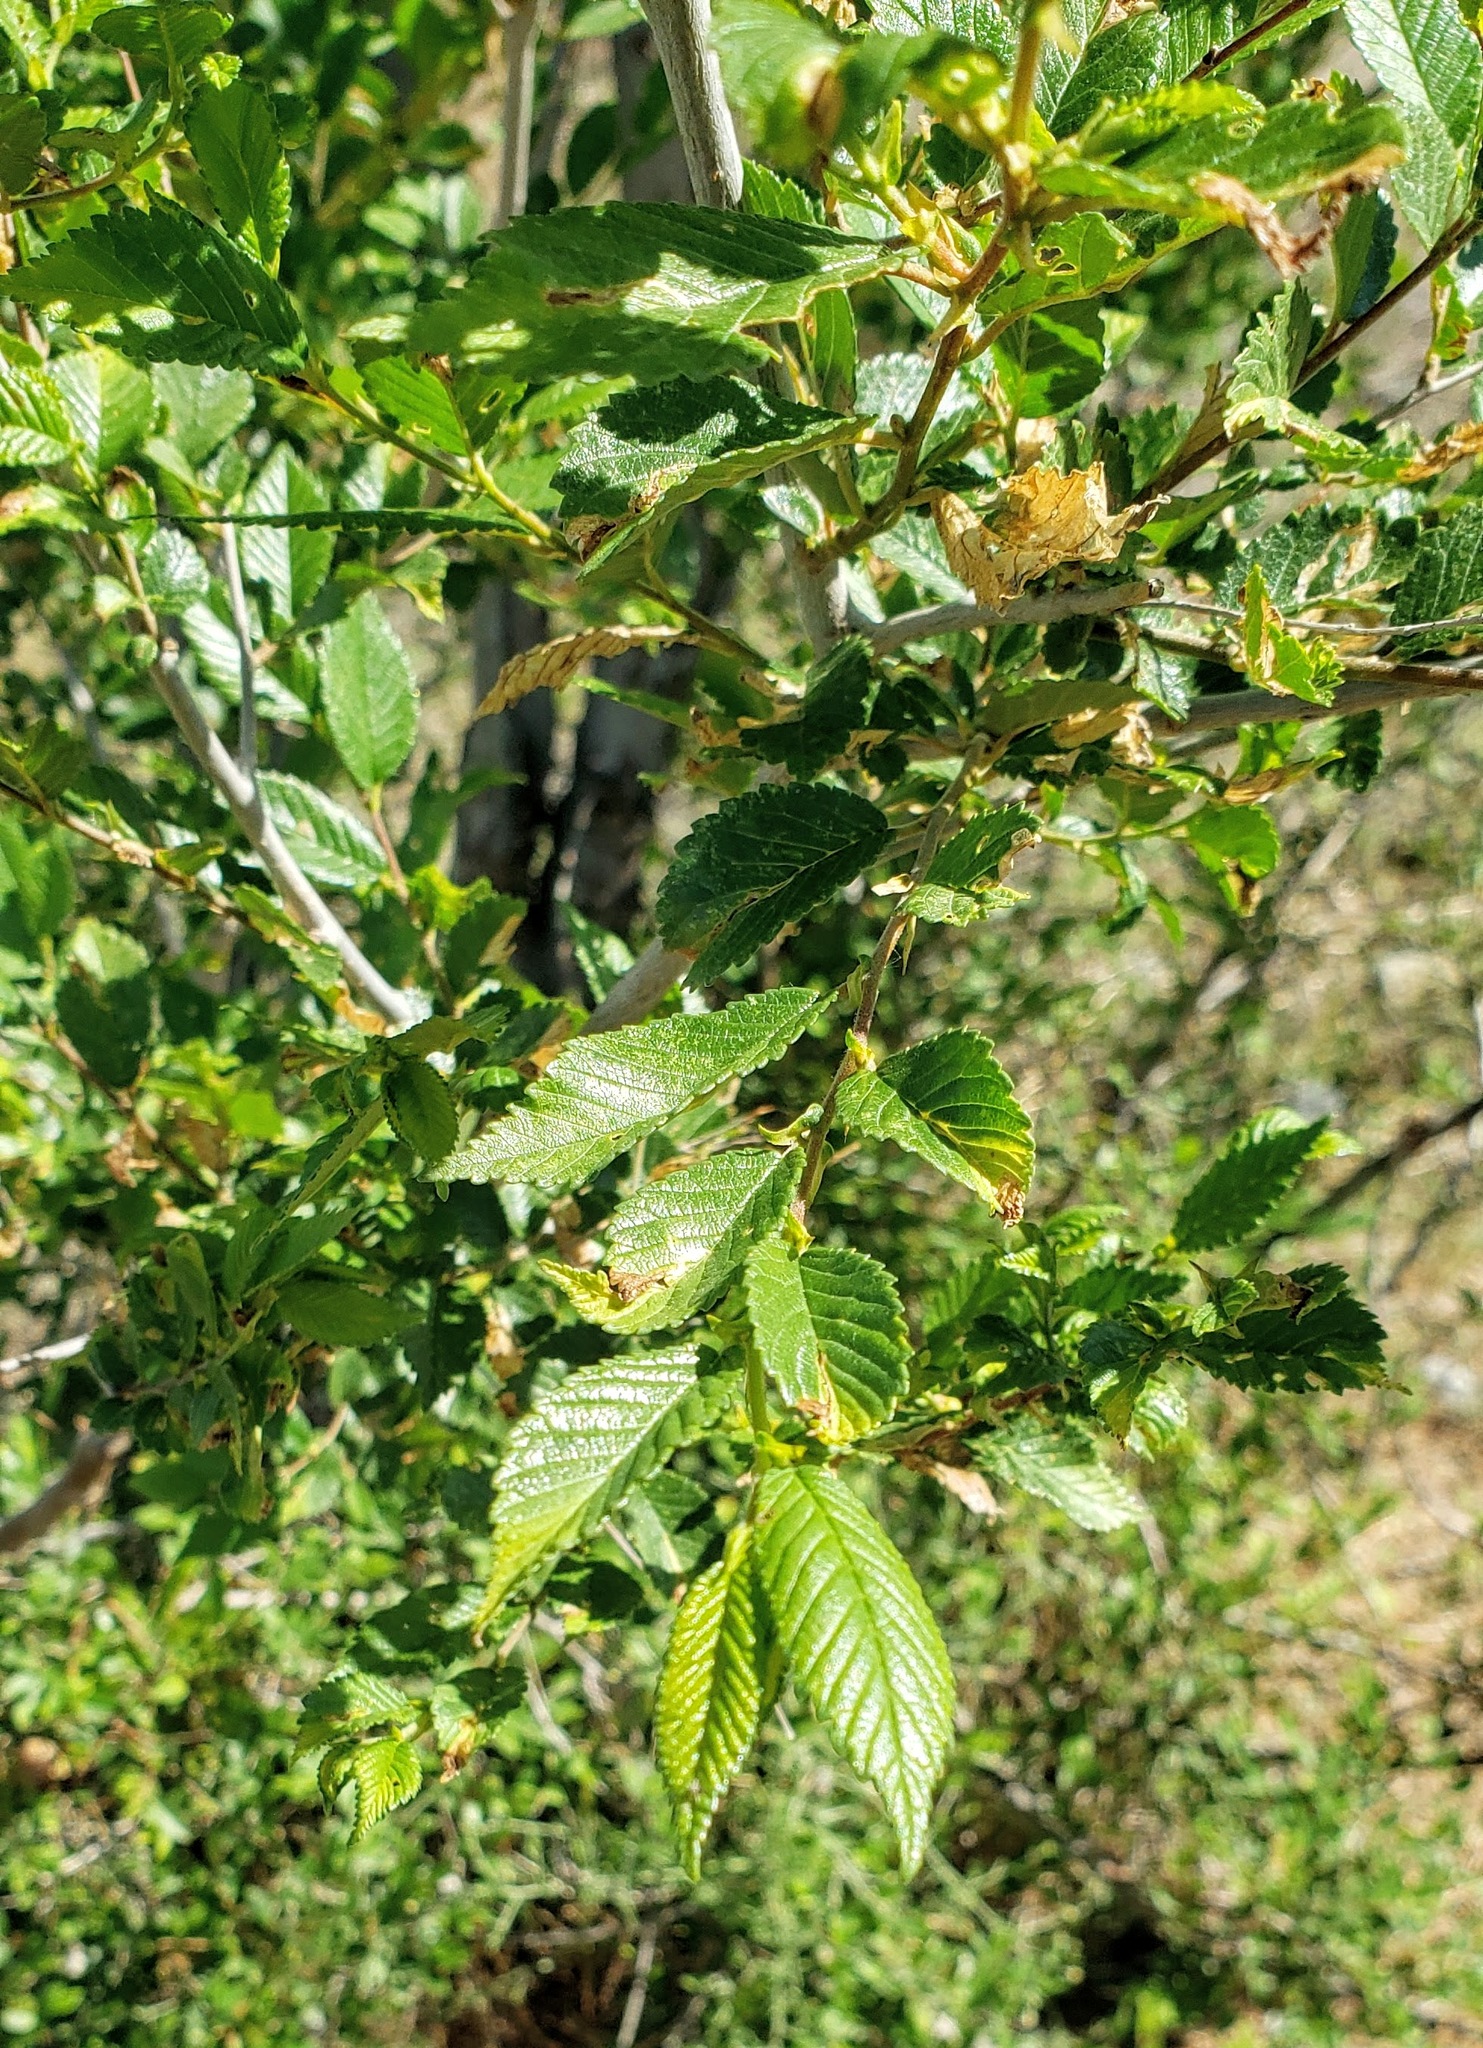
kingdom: Plantae
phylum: Tracheophyta
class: Magnoliopsida
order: Rosales
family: Ulmaceae
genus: Ulmus
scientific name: Ulmus pumila
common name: Siberian elm
